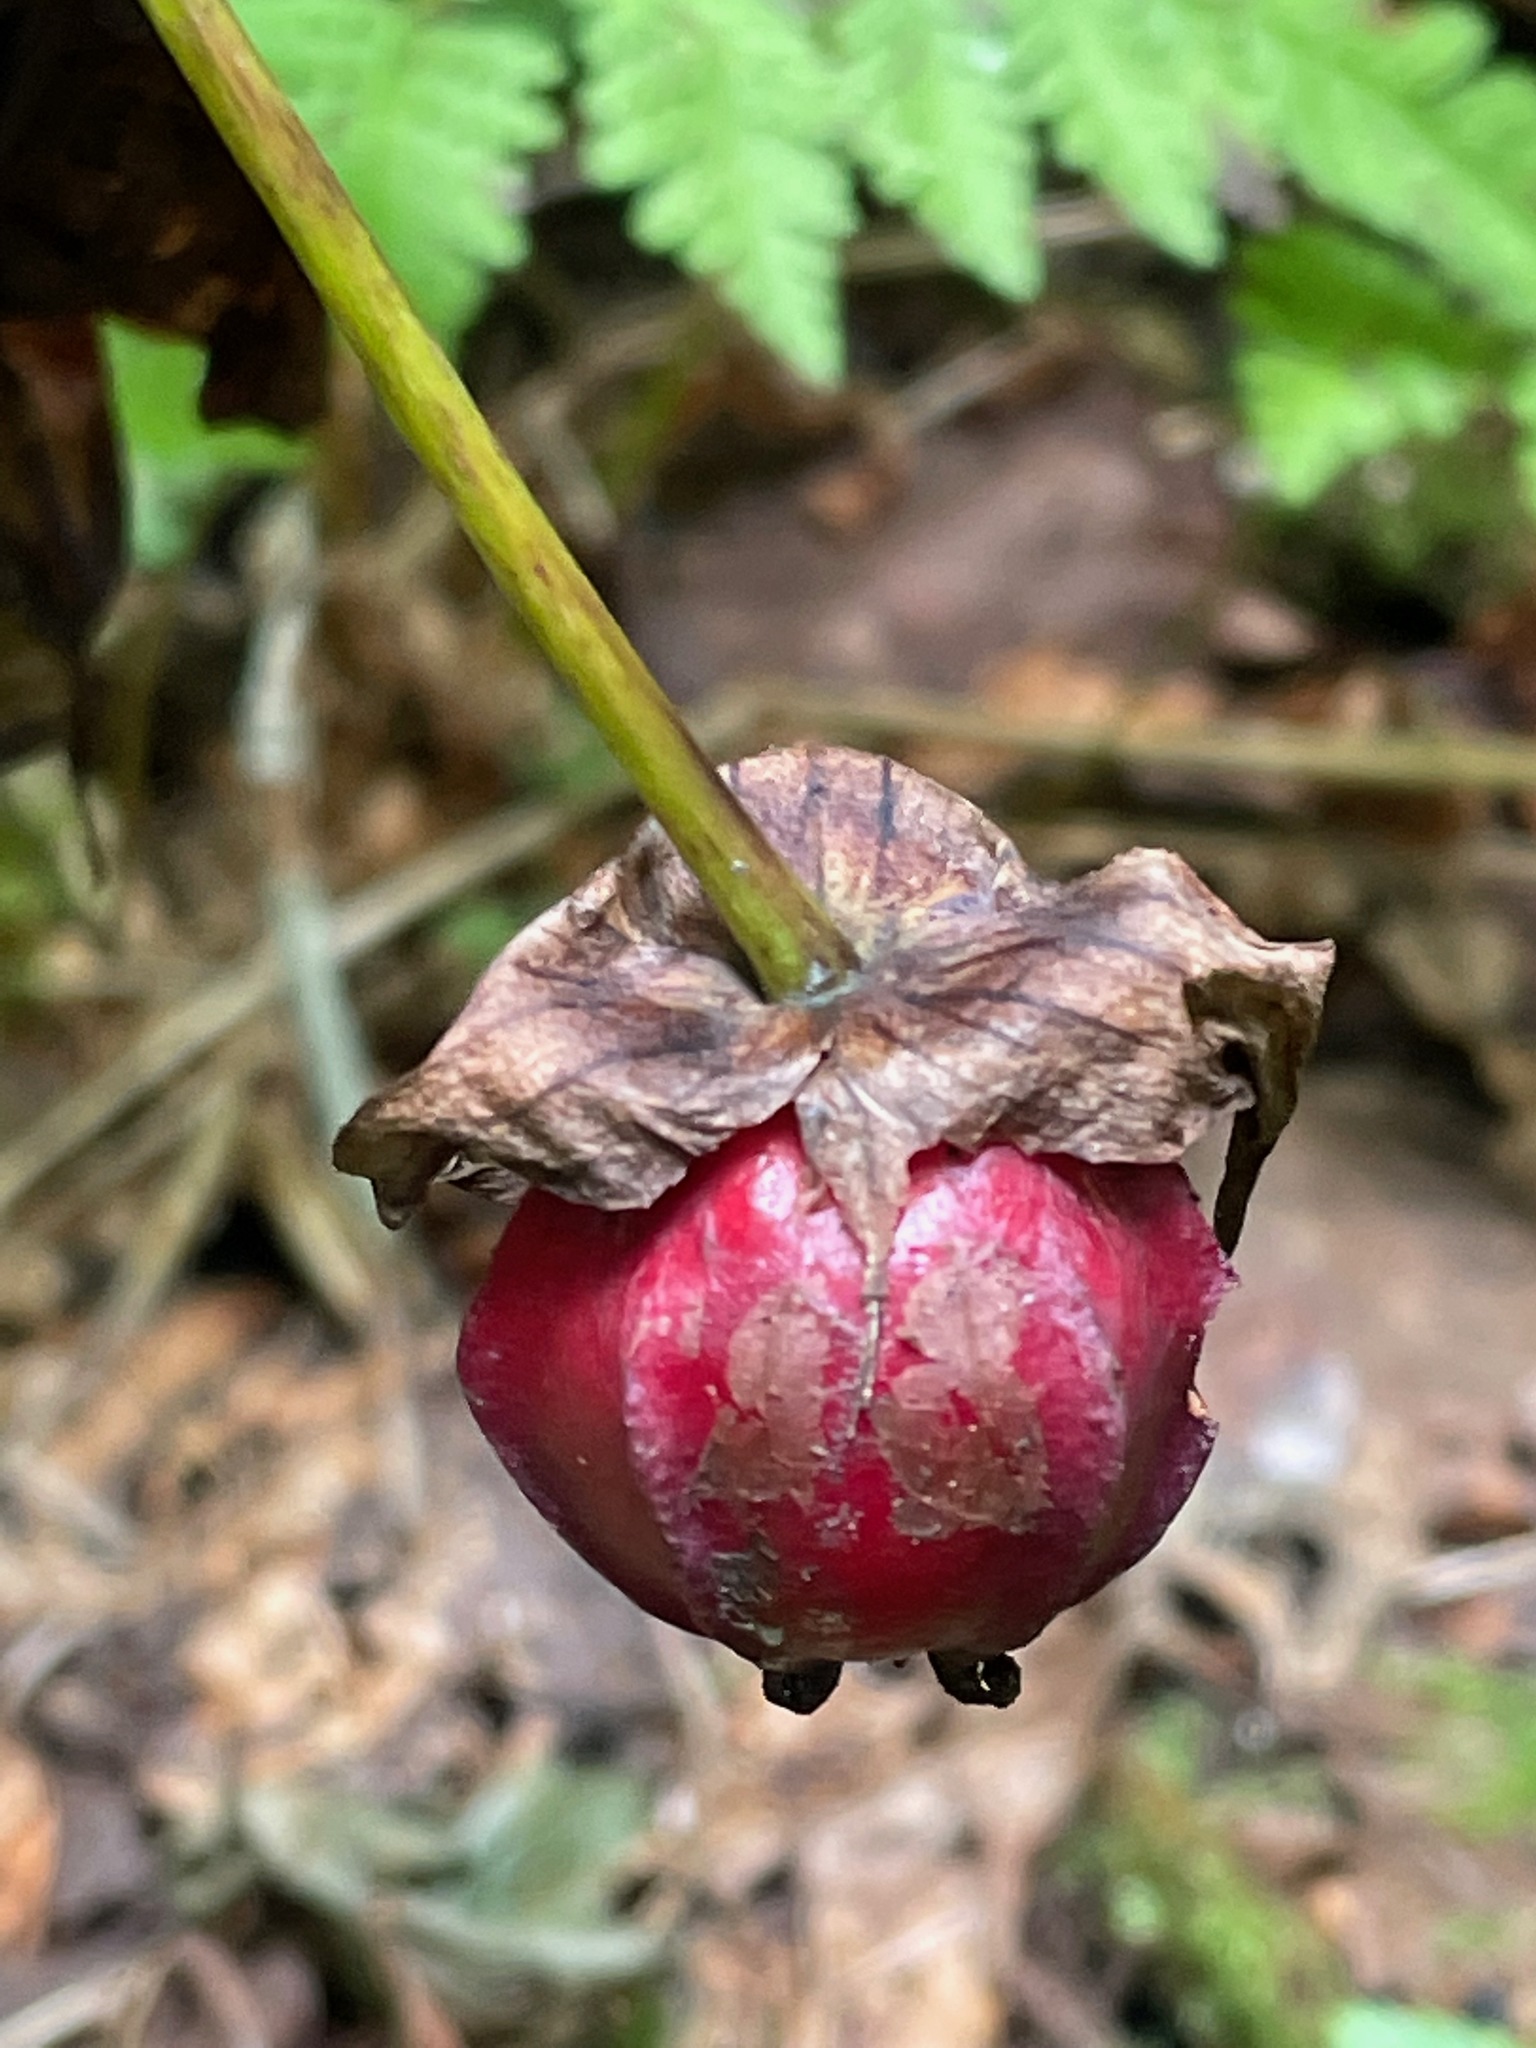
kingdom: Plantae
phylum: Tracheophyta
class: Liliopsida
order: Liliales
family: Melanthiaceae
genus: Trillium
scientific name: Trillium erectum
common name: Purple trillium
